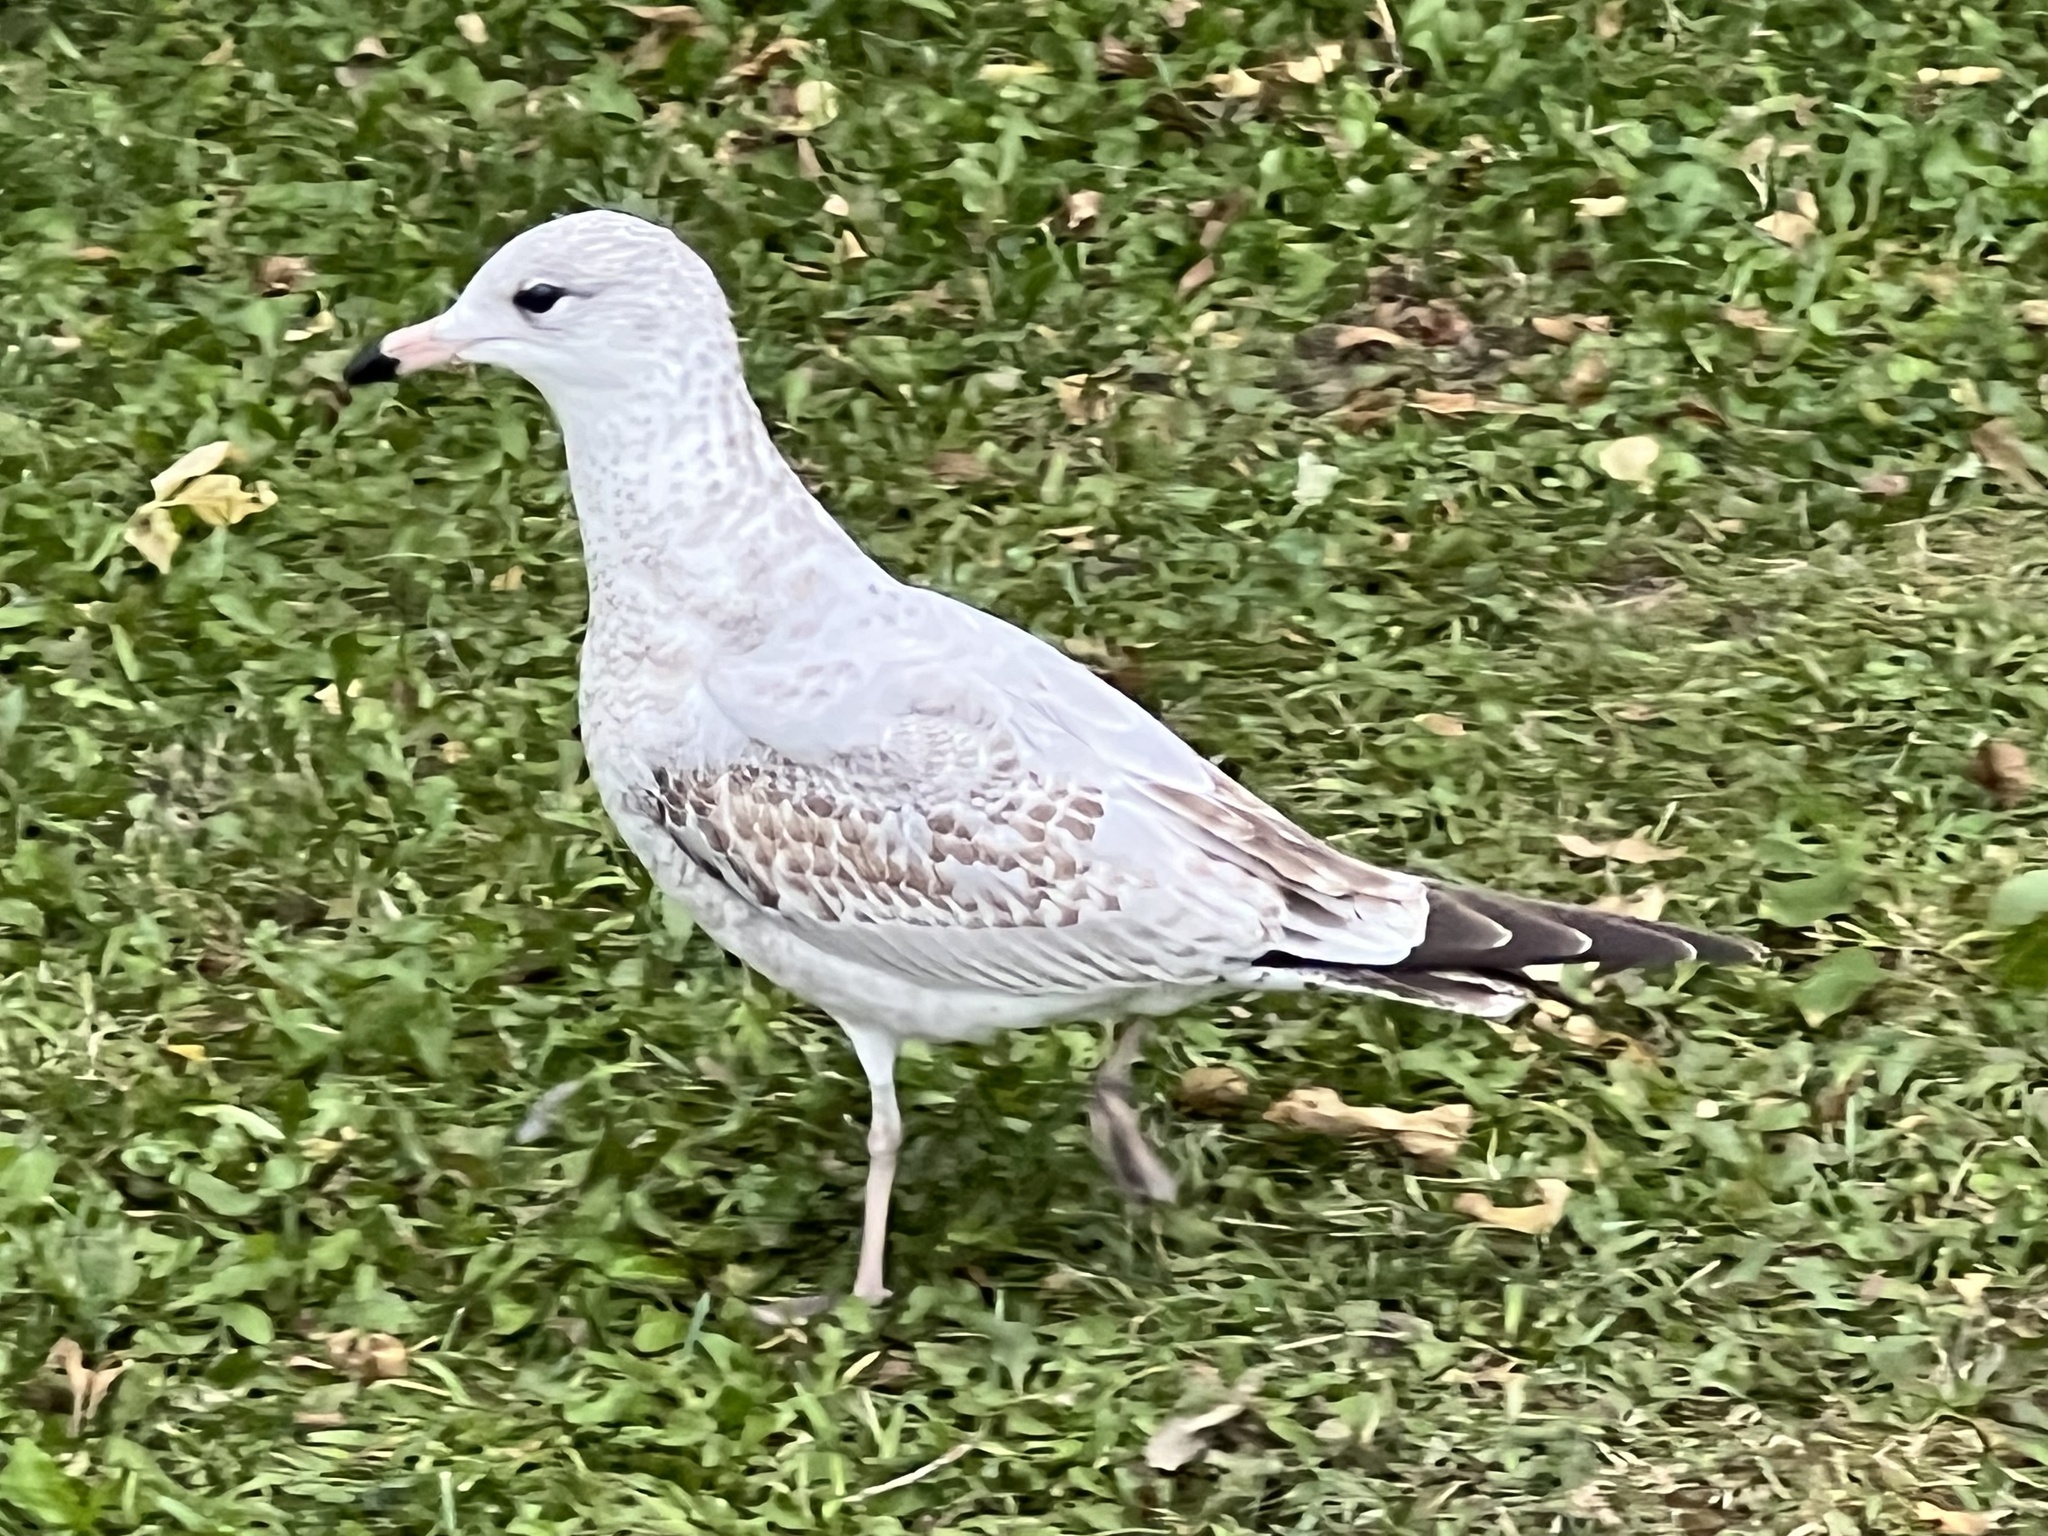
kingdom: Animalia
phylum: Chordata
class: Aves
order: Charadriiformes
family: Laridae
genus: Larus
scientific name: Larus delawarensis
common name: Ring-billed gull
